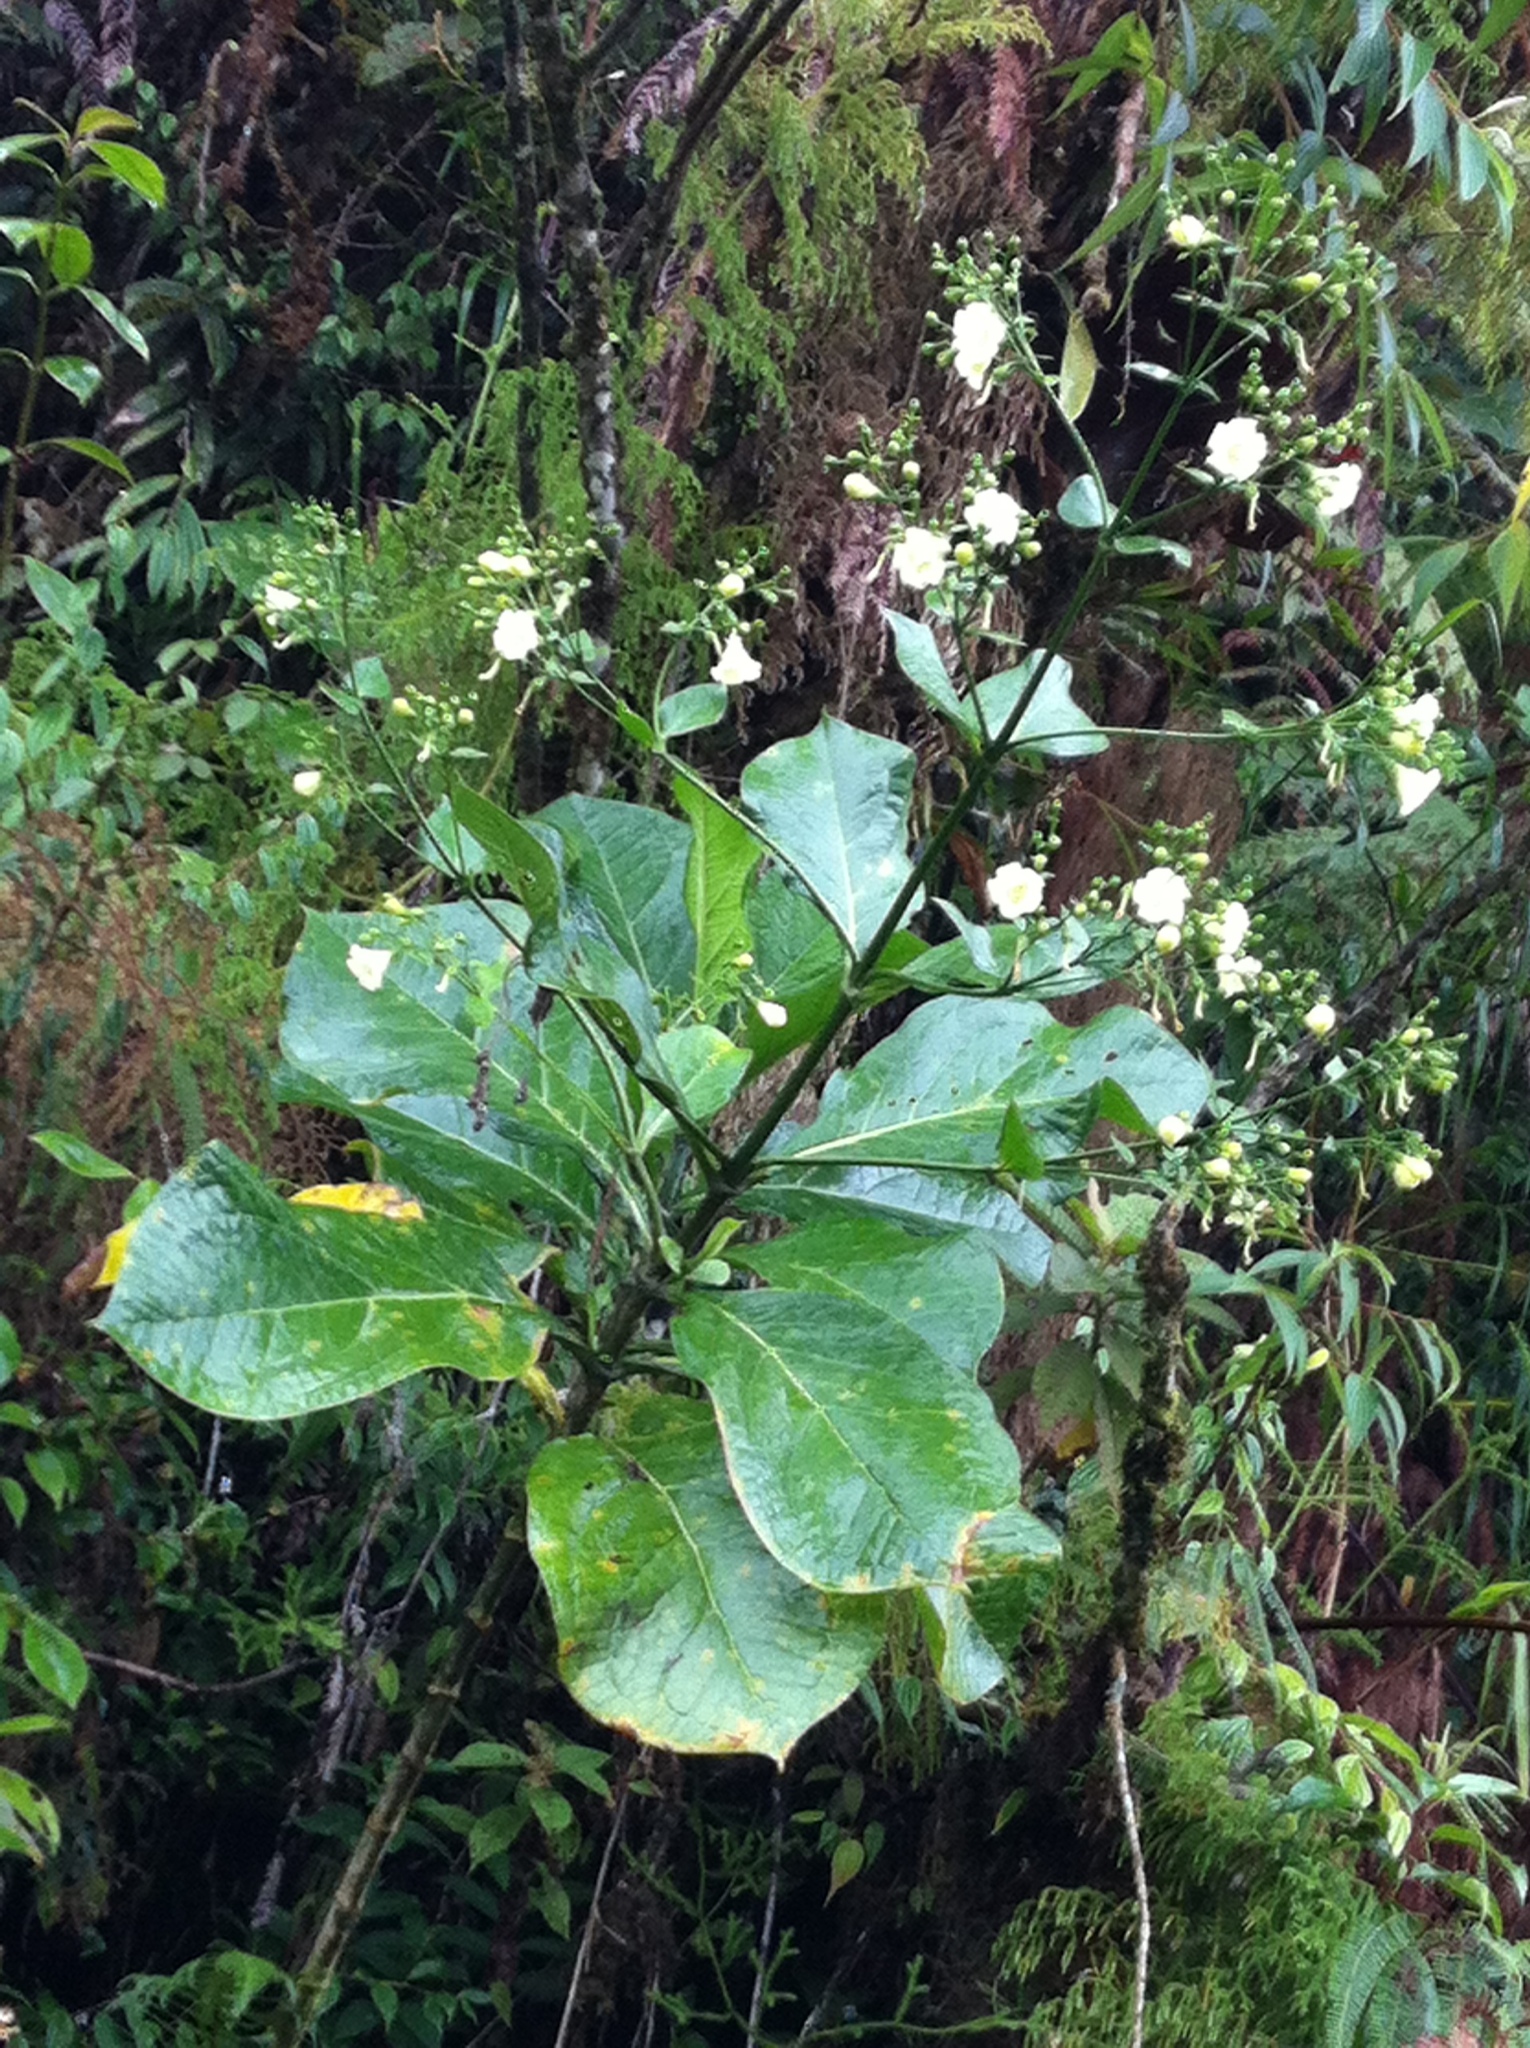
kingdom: Plantae
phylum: Tracheophyta
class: Magnoliopsida
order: Gentianales
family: Gentianaceae
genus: Macrocarpaea
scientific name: Macrocarpaea valerioi
